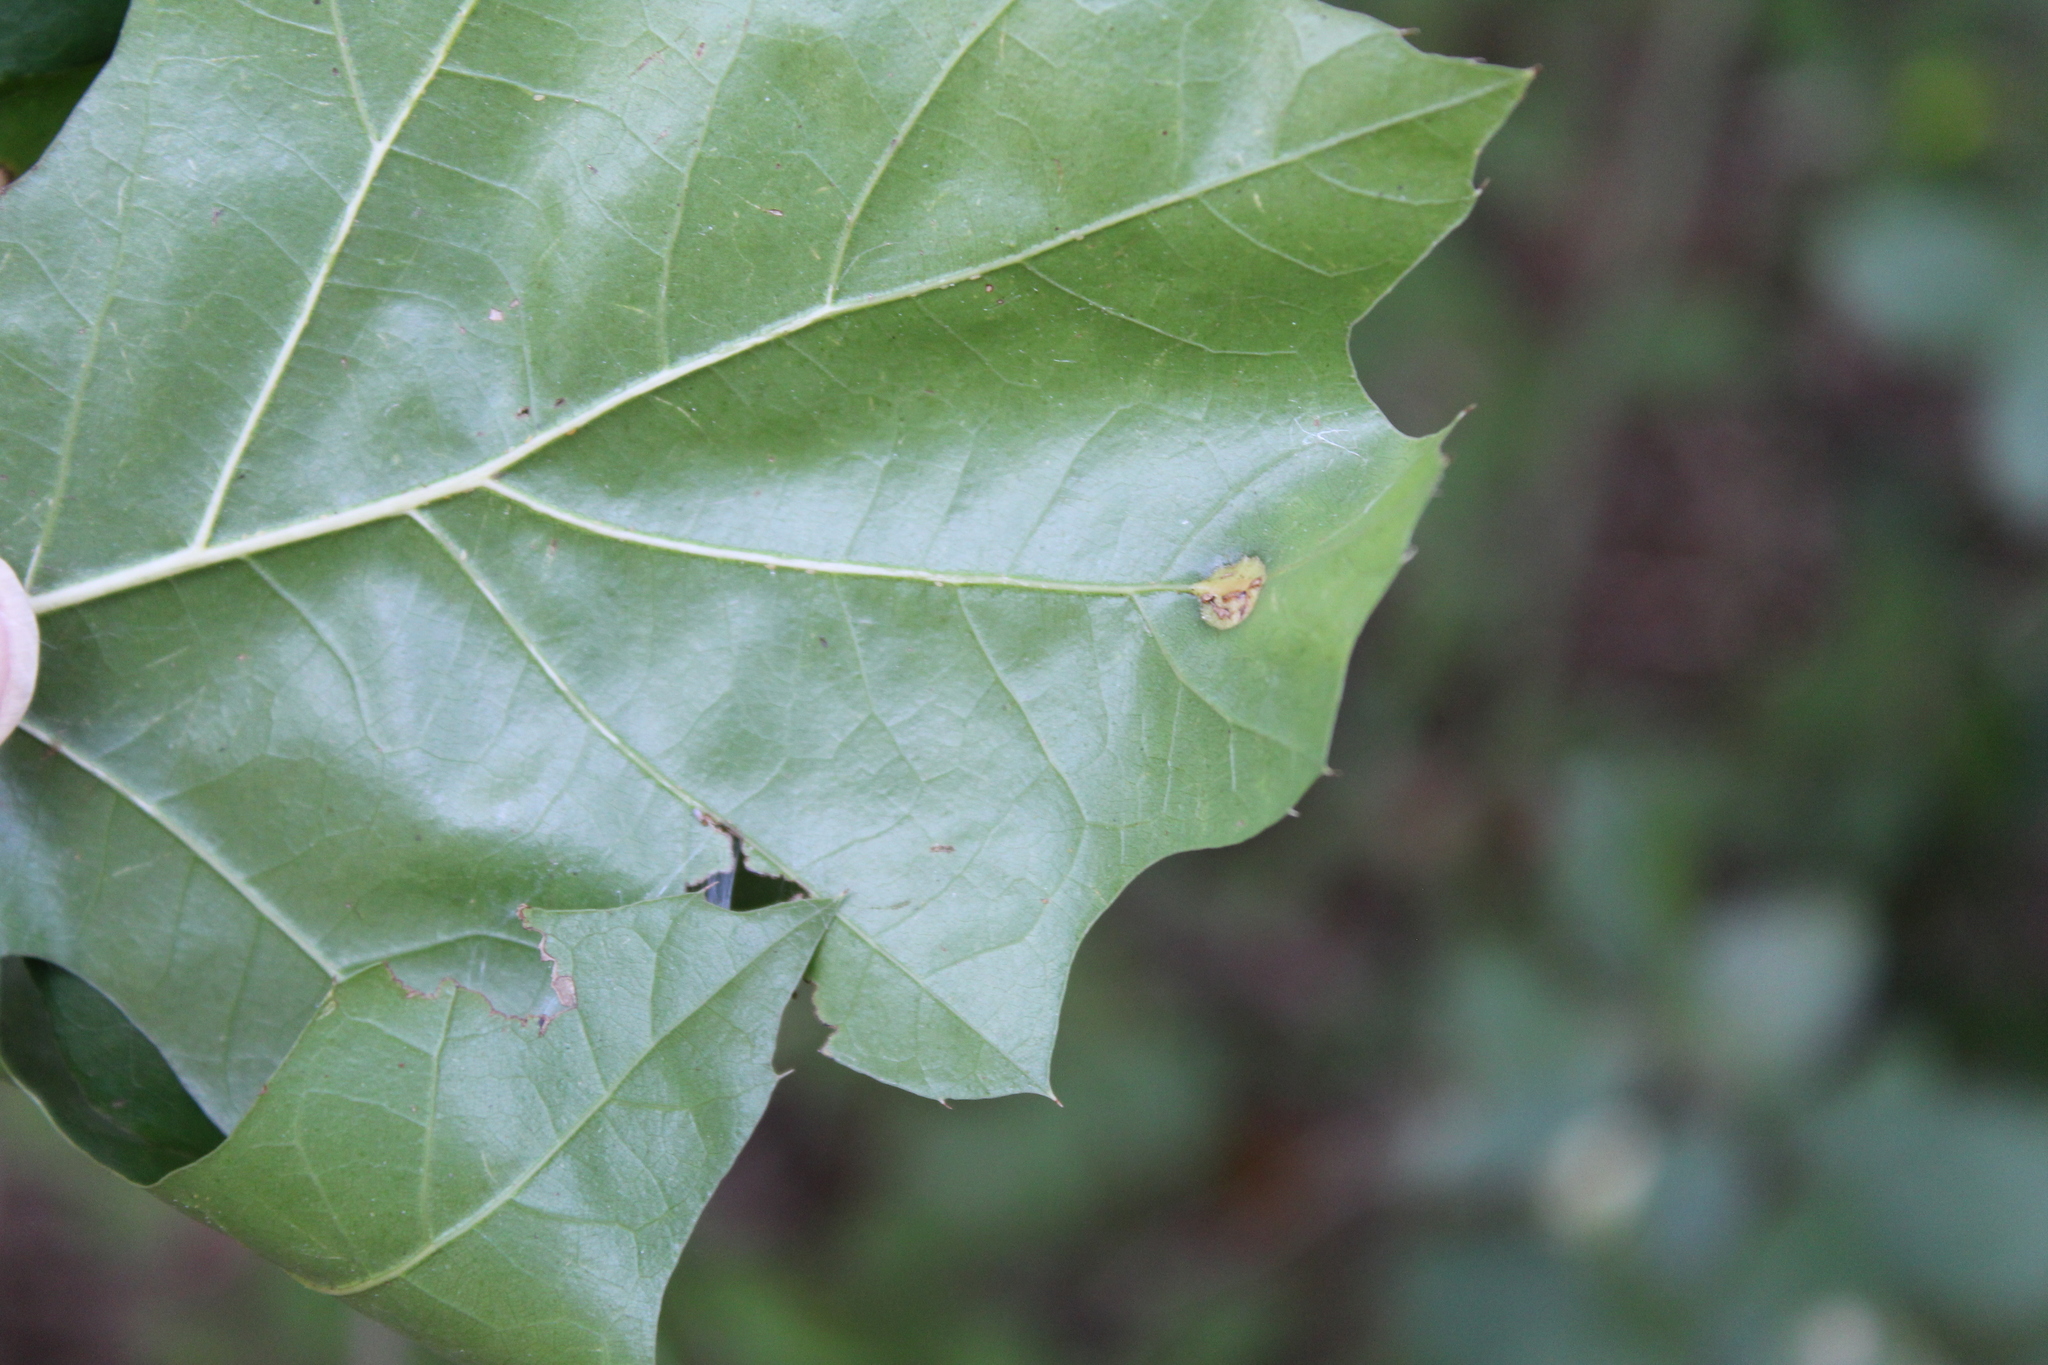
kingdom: Animalia
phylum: Arthropoda
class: Insecta
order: Diptera
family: Cecidomyiidae
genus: Polystepha
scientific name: Polystepha pilulae
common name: Oak leaf gall midge
